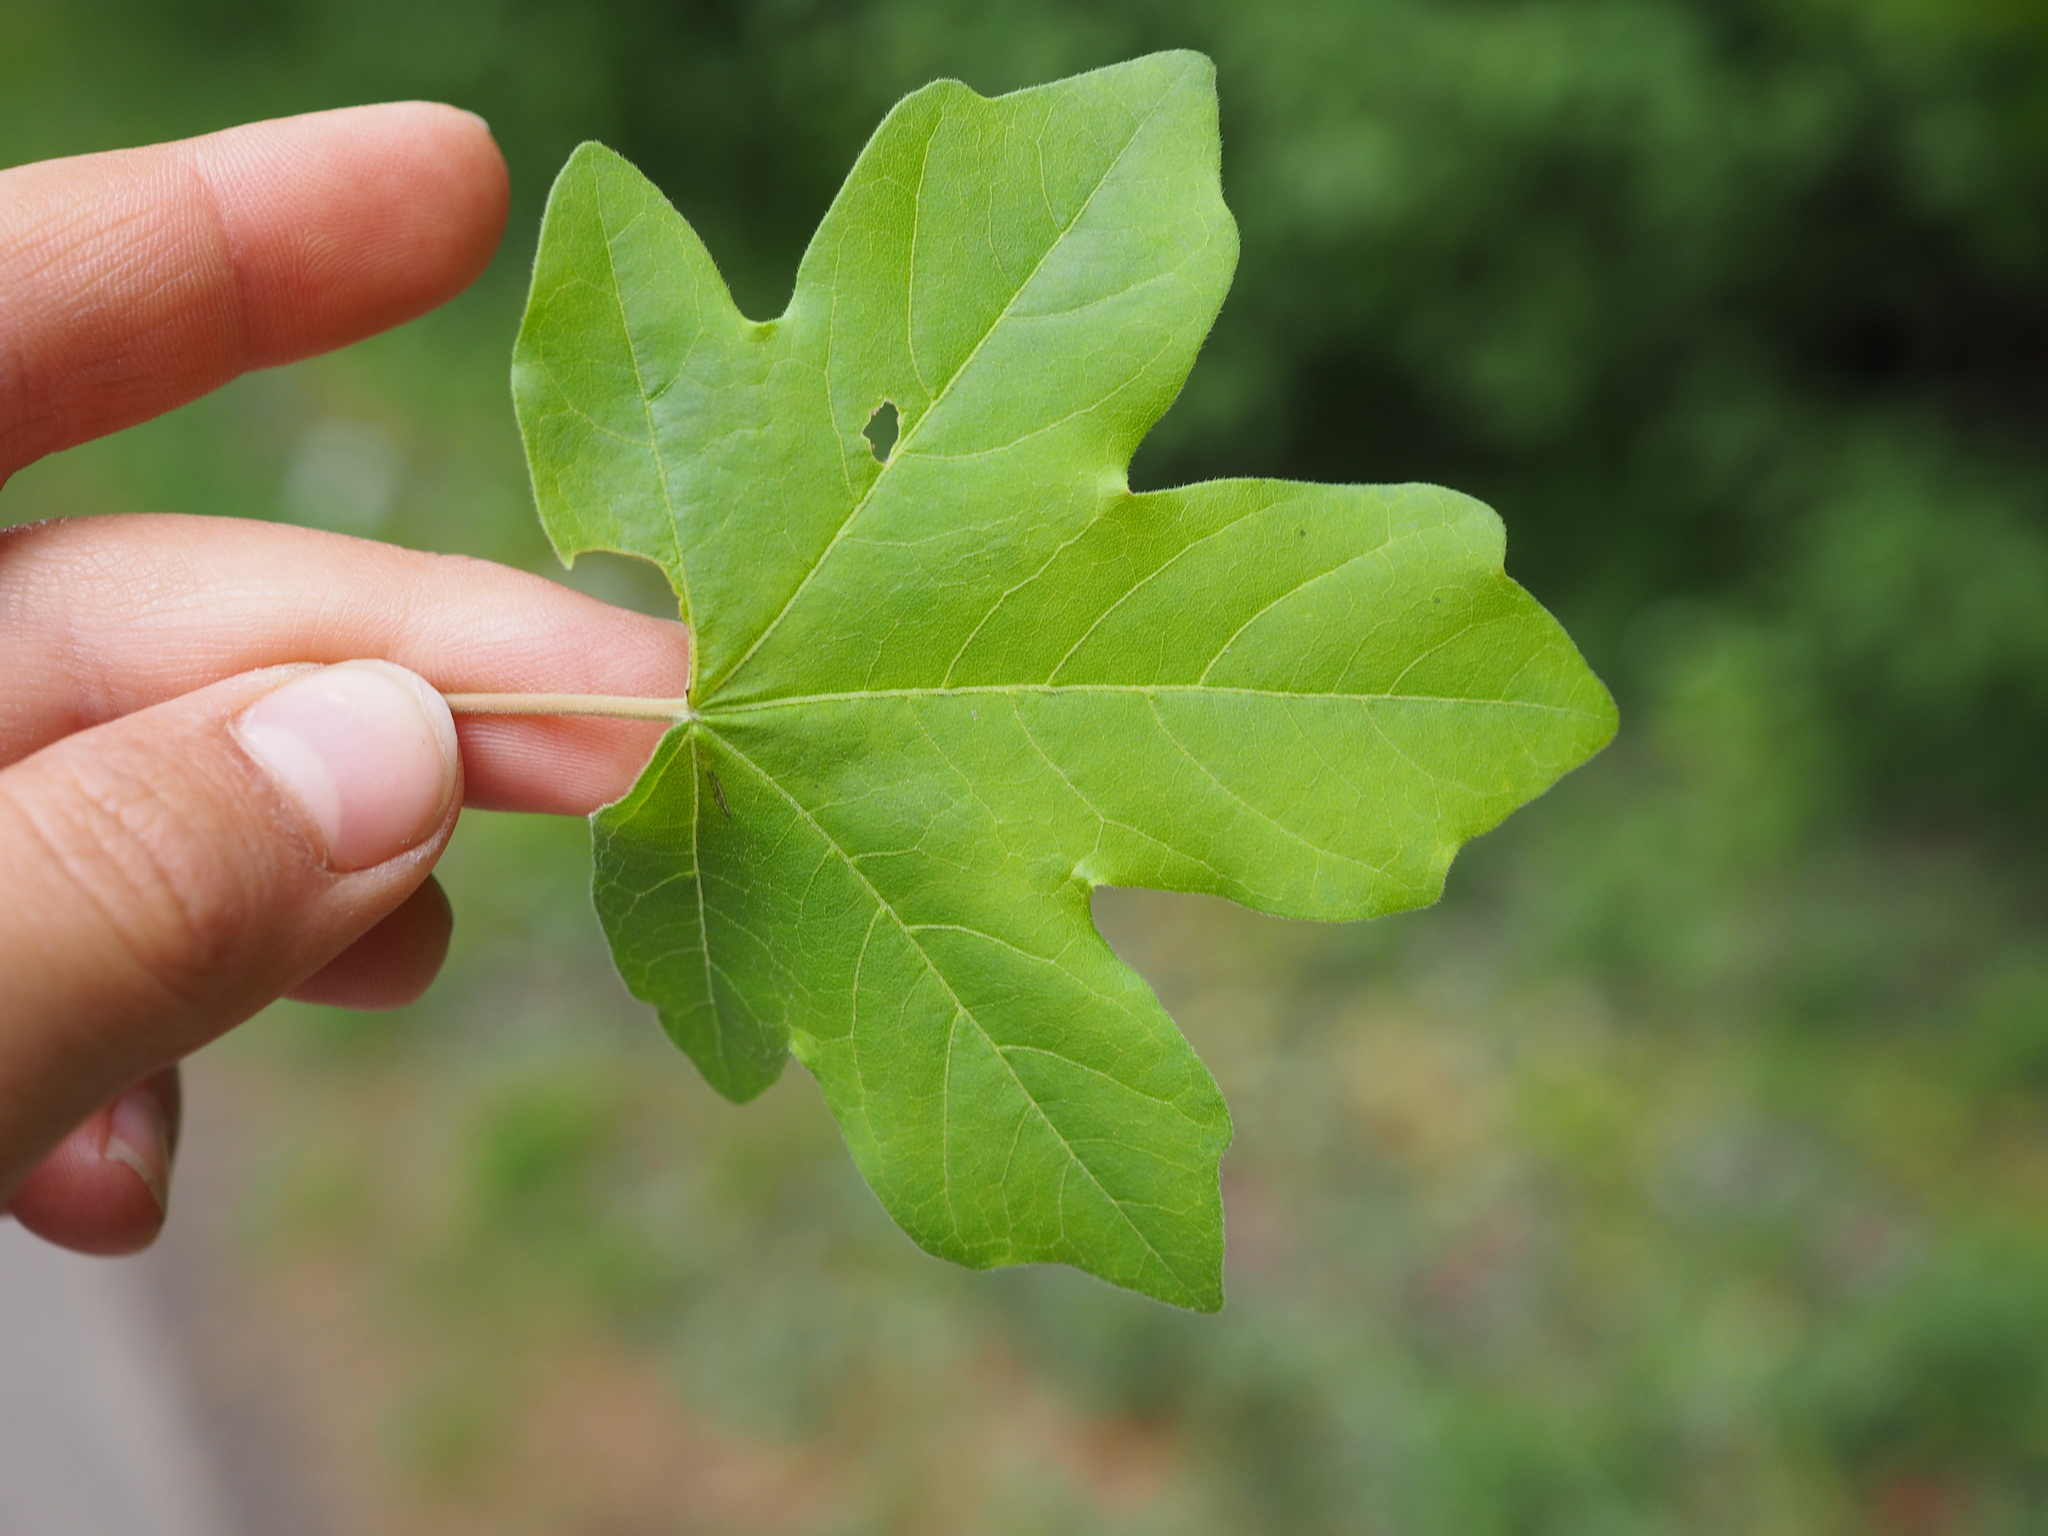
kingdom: Plantae
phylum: Tracheophyta
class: Magnoliopsida
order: Sapindales
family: Sapindaceae
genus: Acer
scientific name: Acer campestre
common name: Field maple
